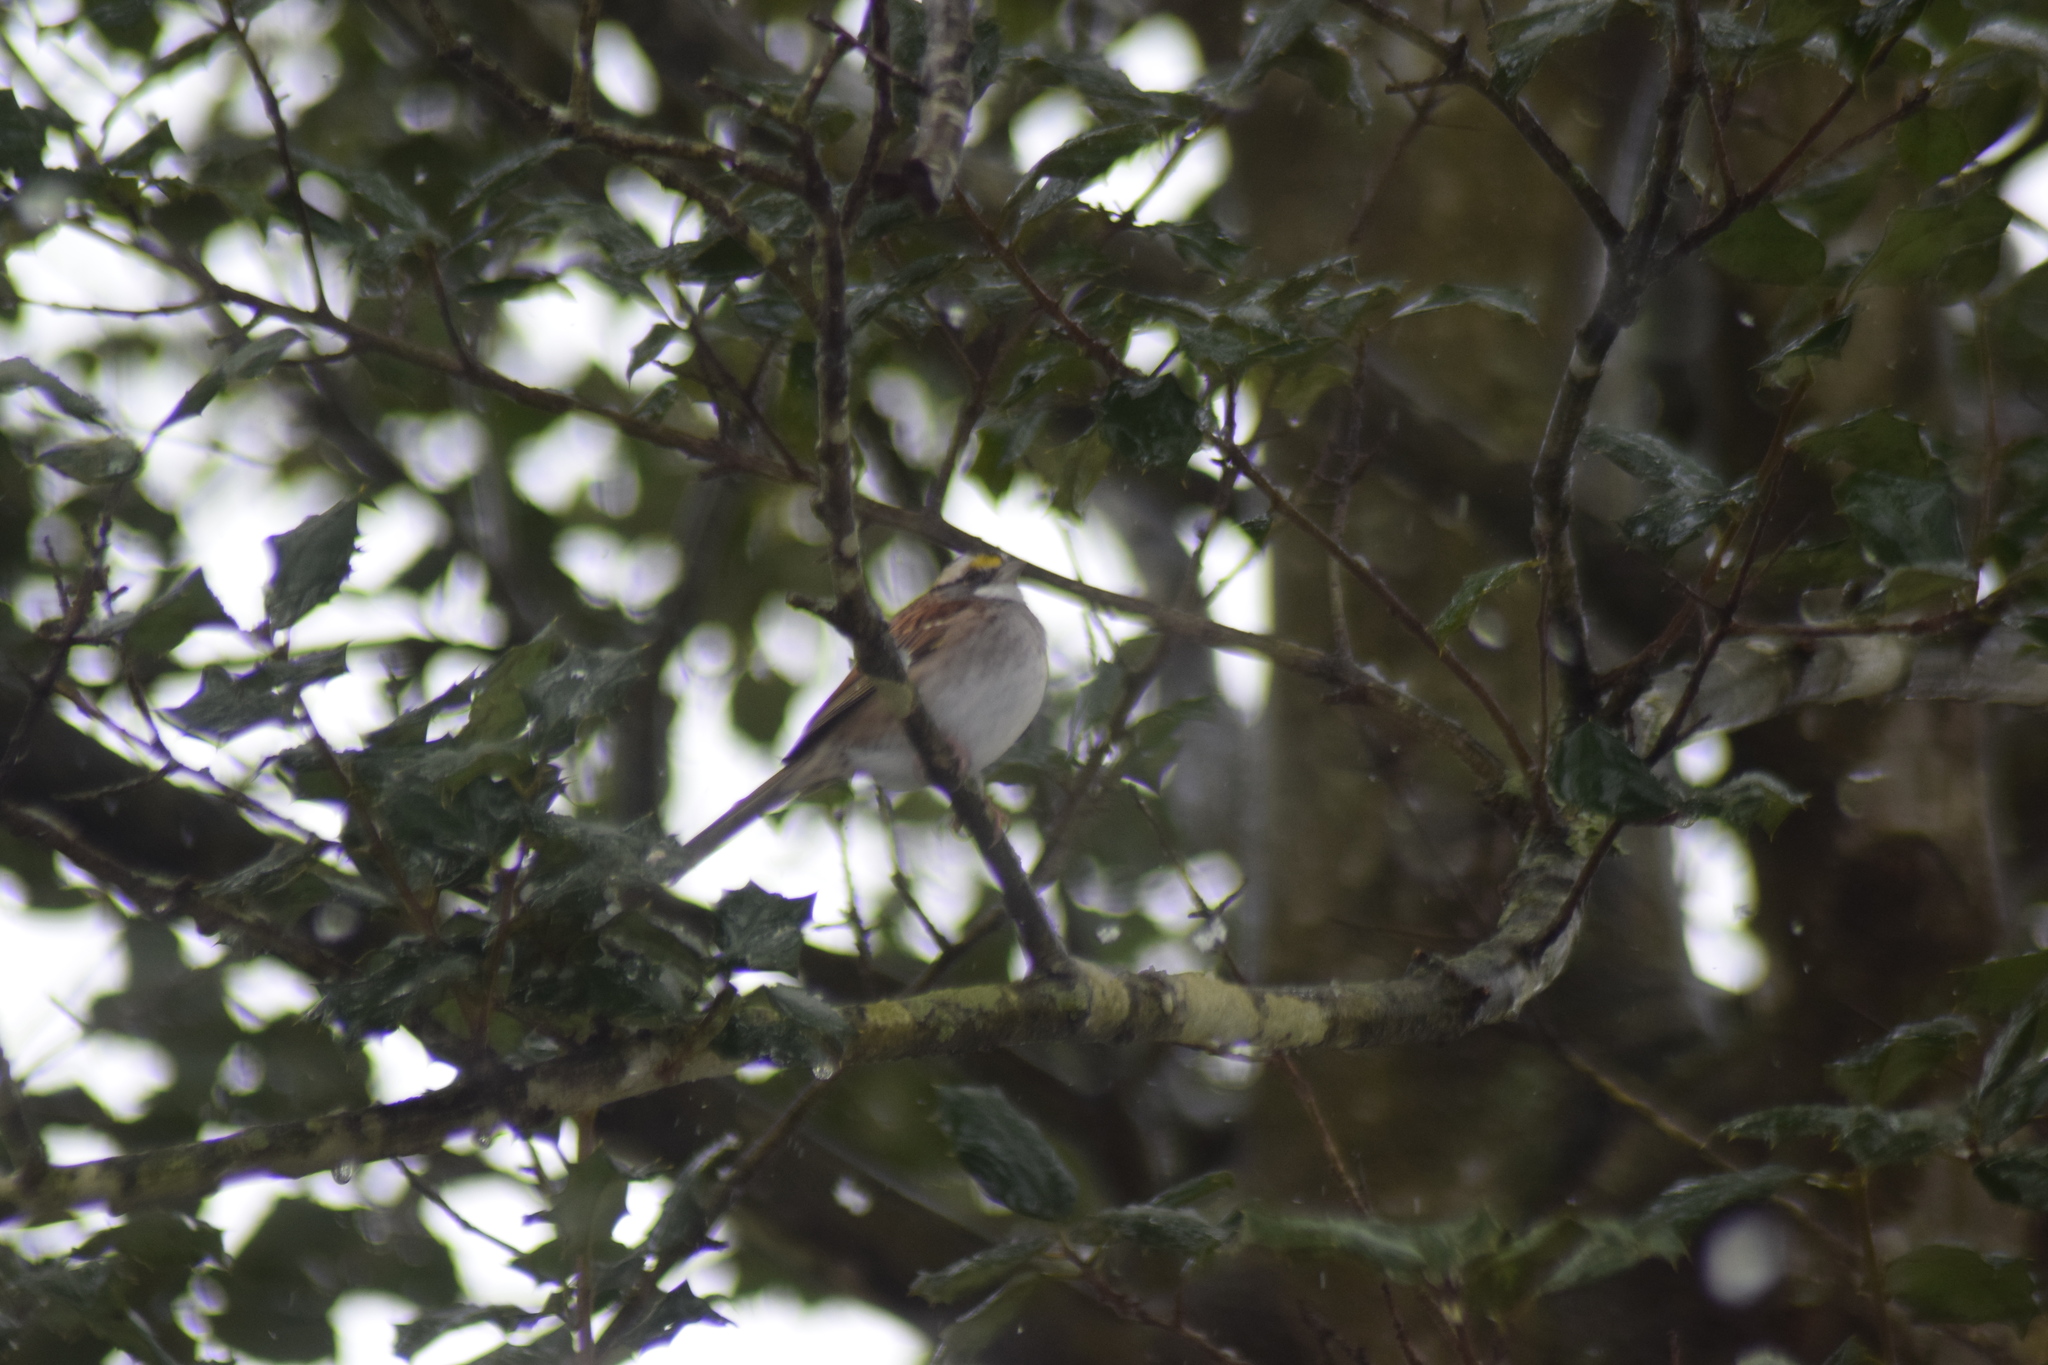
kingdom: Animalia
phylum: Chordata
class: Aves
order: Passeriformes
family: Passerellidae
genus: Zonotrichia
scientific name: Zonotrichia albicollis
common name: White-throated sparrow
